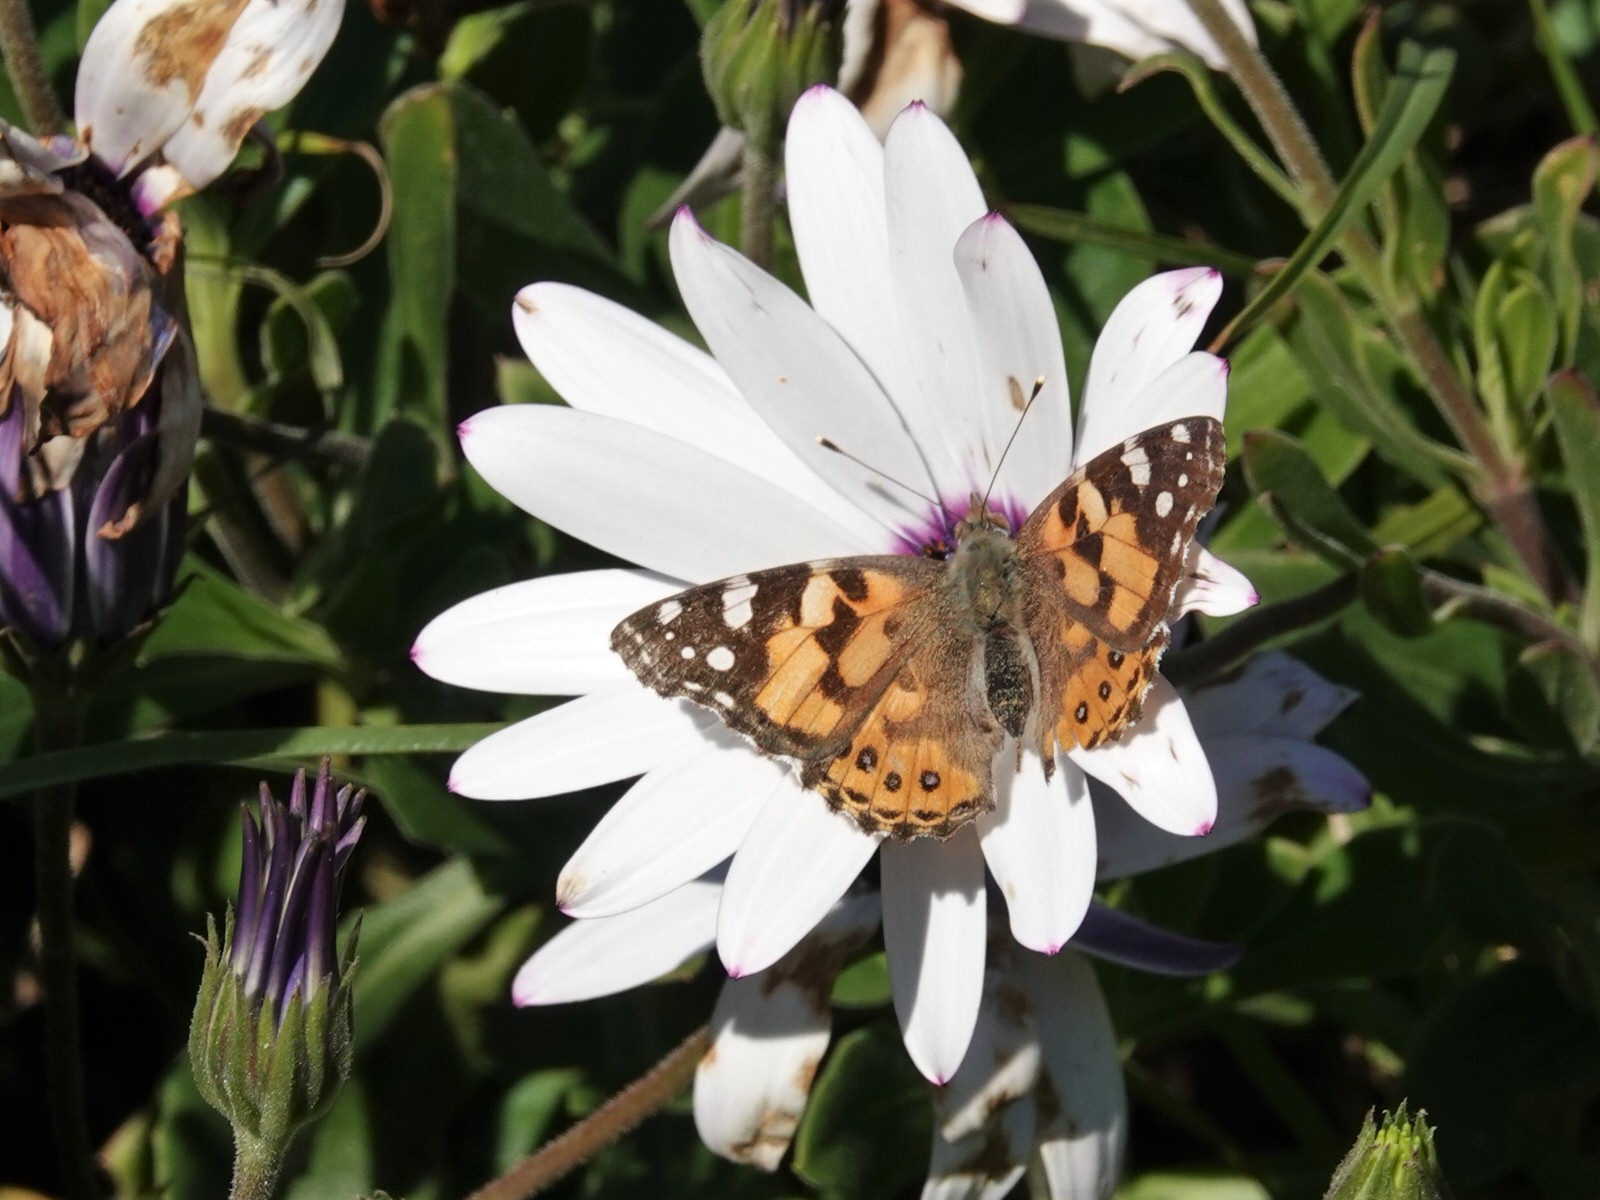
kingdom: Animalia
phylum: Arthropoda
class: Insecta
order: Lepidoptera
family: Nymphalidae
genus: Vanessa
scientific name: Vanessa kershawi
